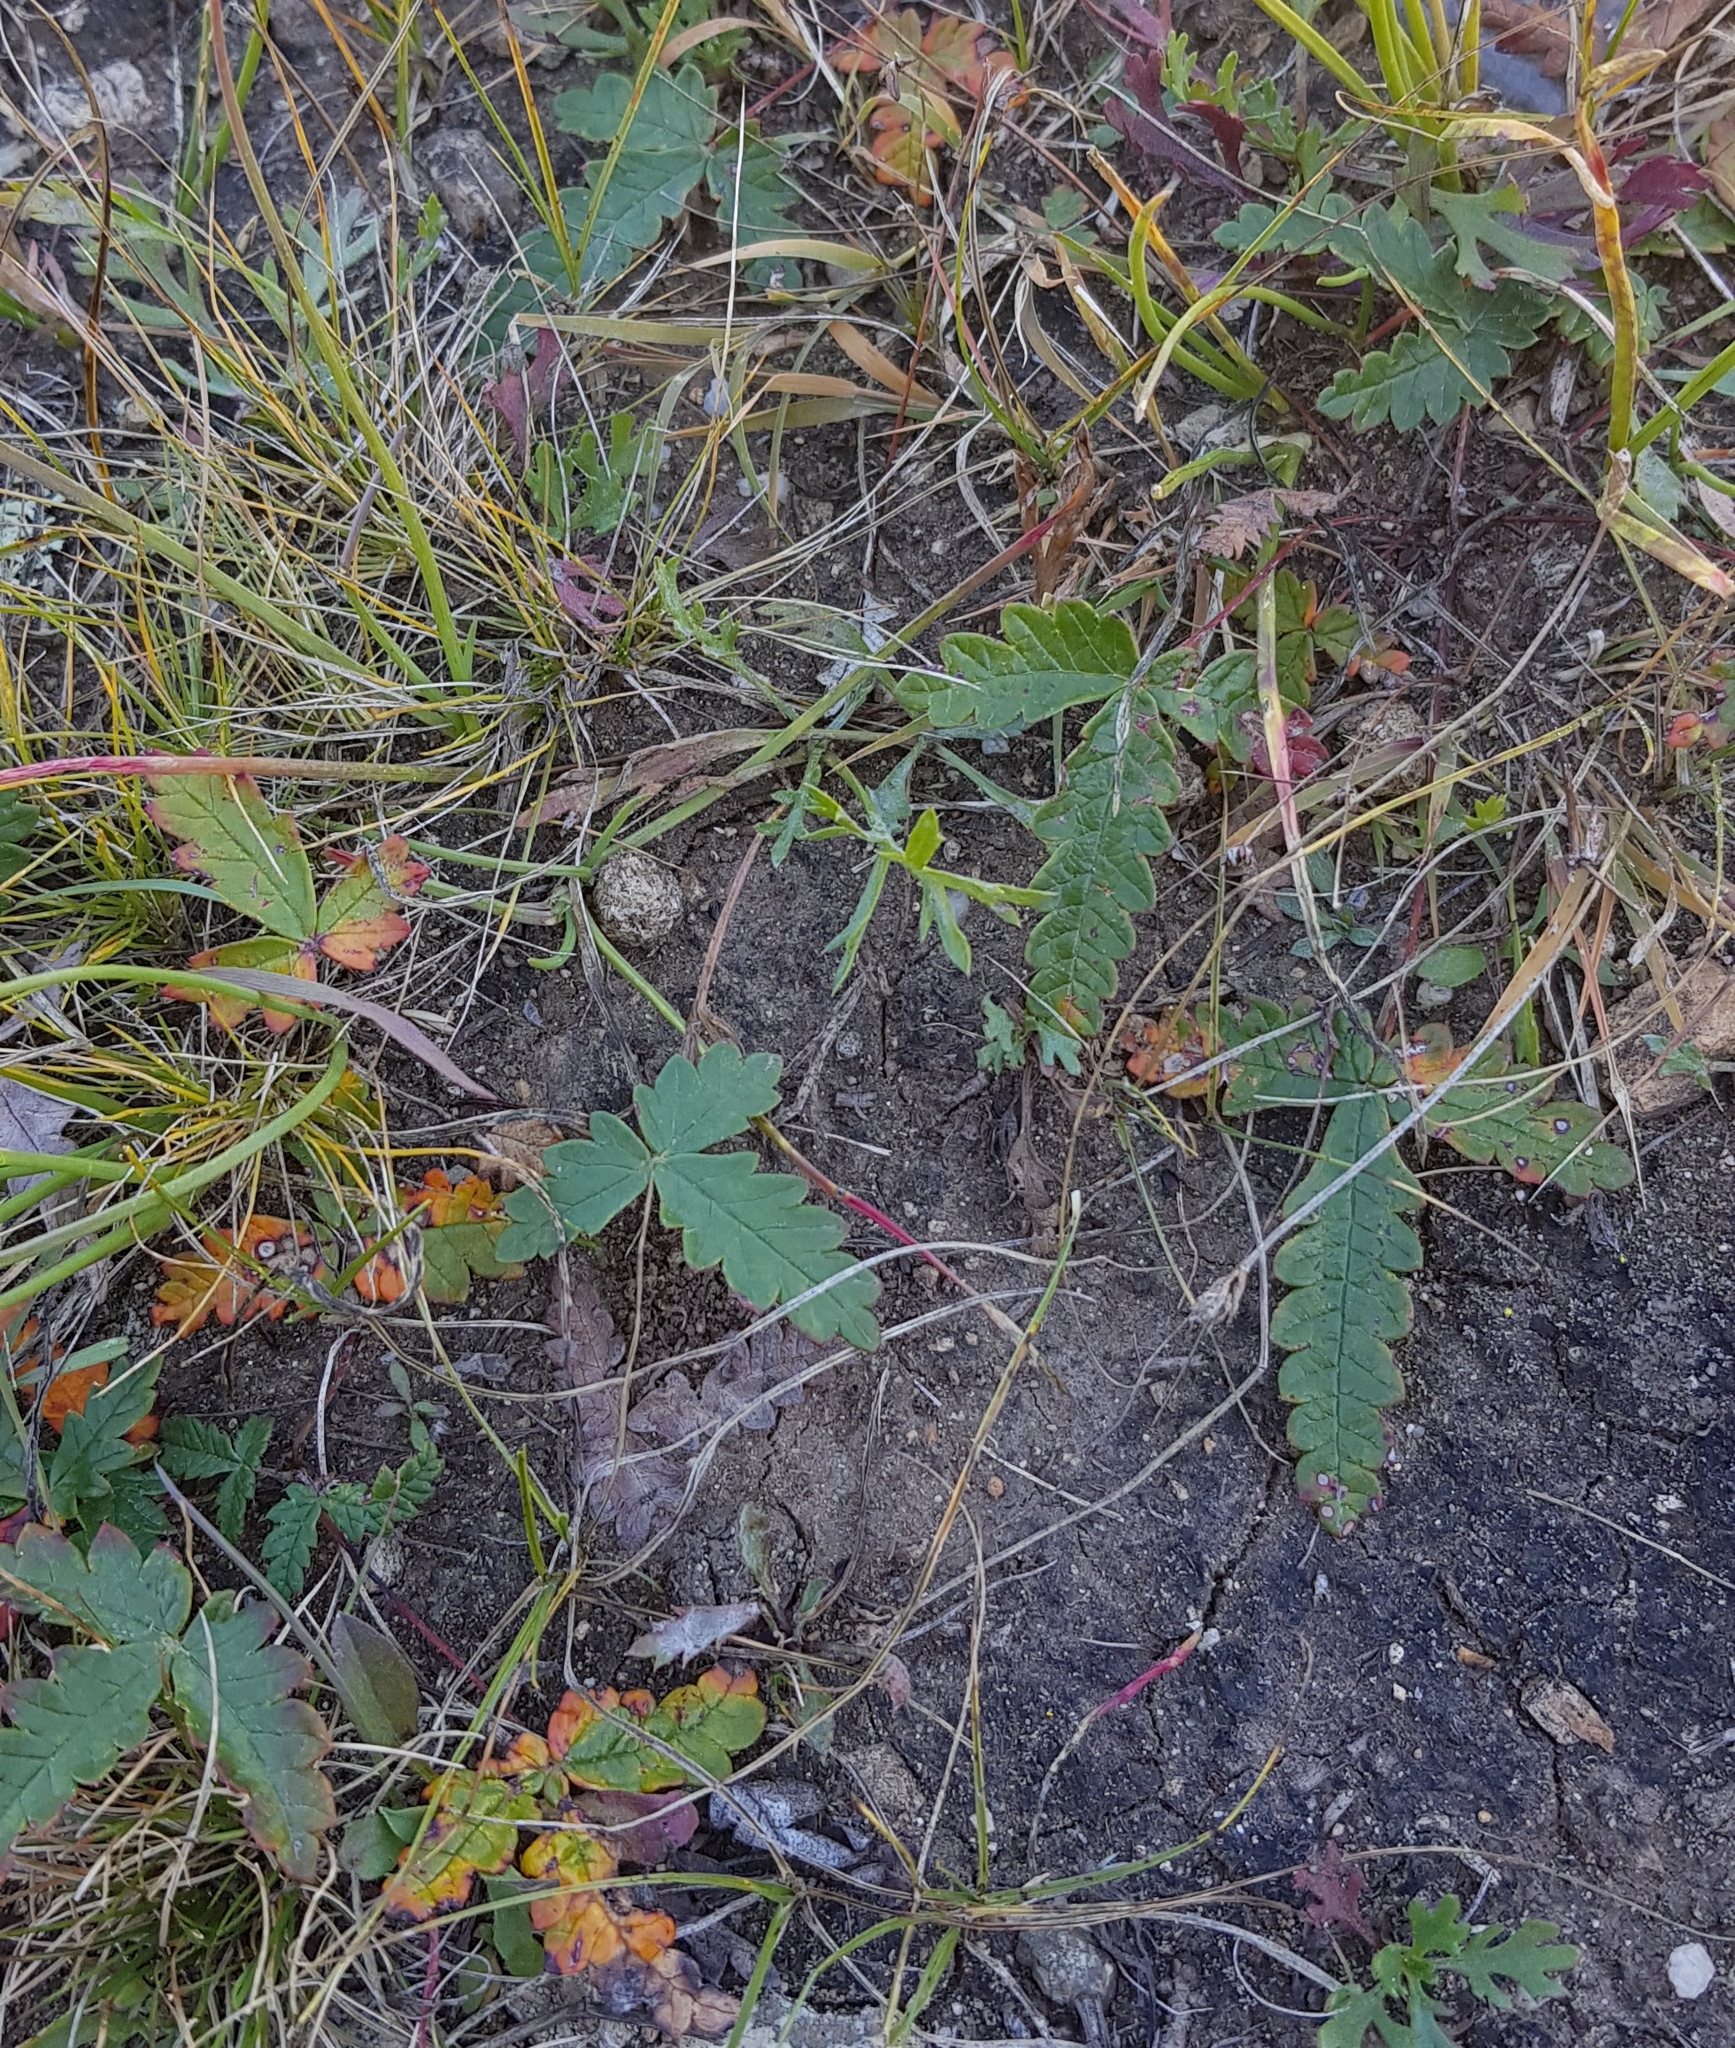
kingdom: Plantae
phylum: Tracheophyta
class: Magnoliopsida
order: Rosales
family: Rosaceae
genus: Potentilla
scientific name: Potentilla
